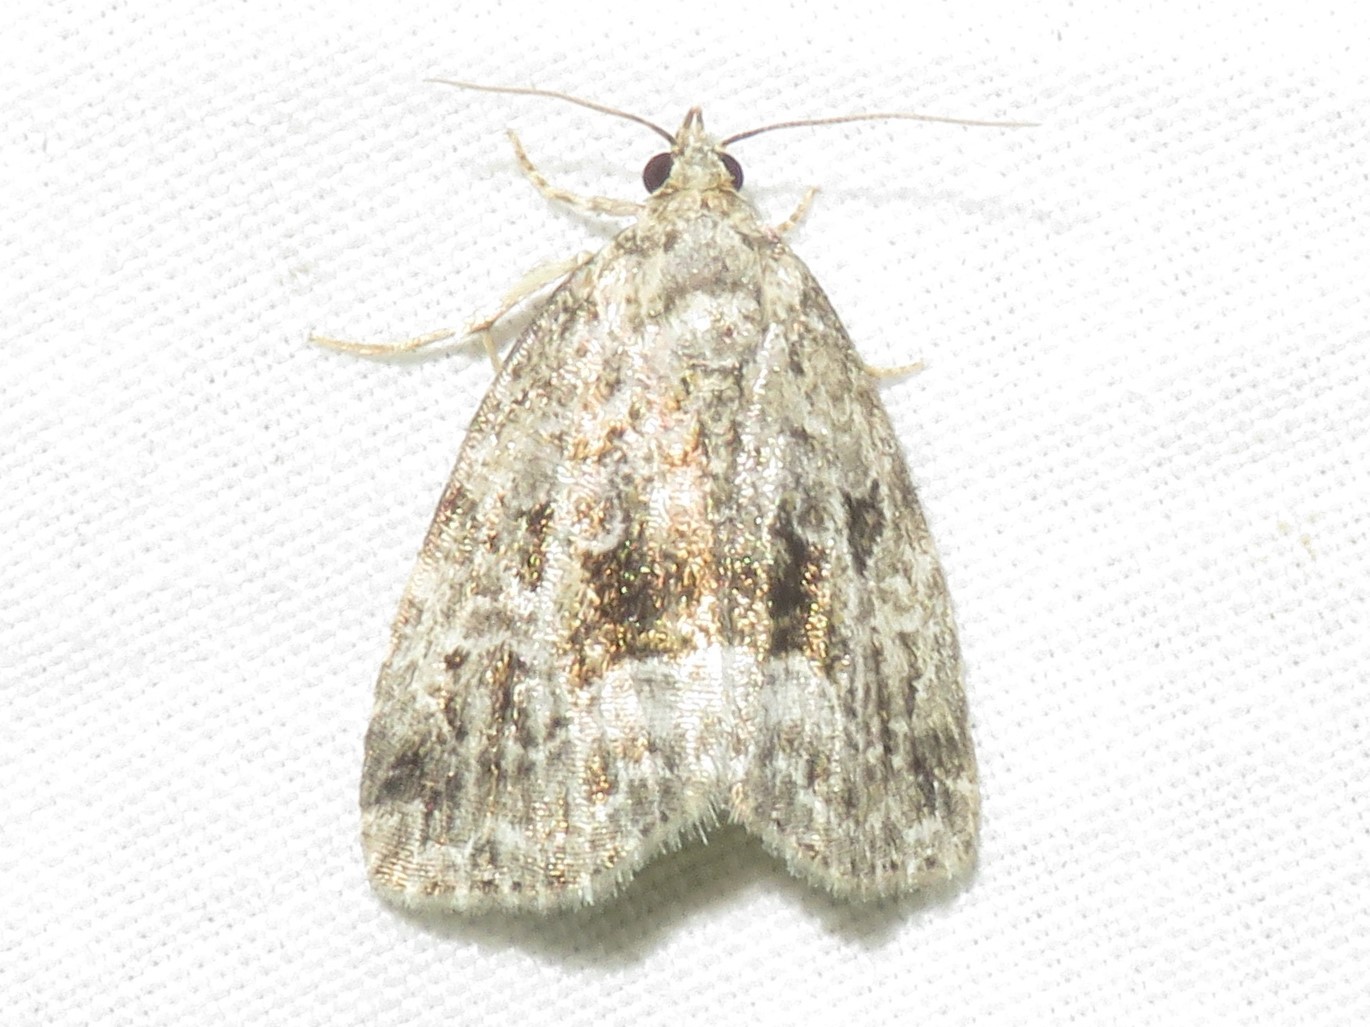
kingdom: Animalia
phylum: Arthropoda
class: Insecta
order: Lepidoptera
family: Noctuidae
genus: Protodeltote
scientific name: Protodeltote muscosula
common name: Large mossy glyph
